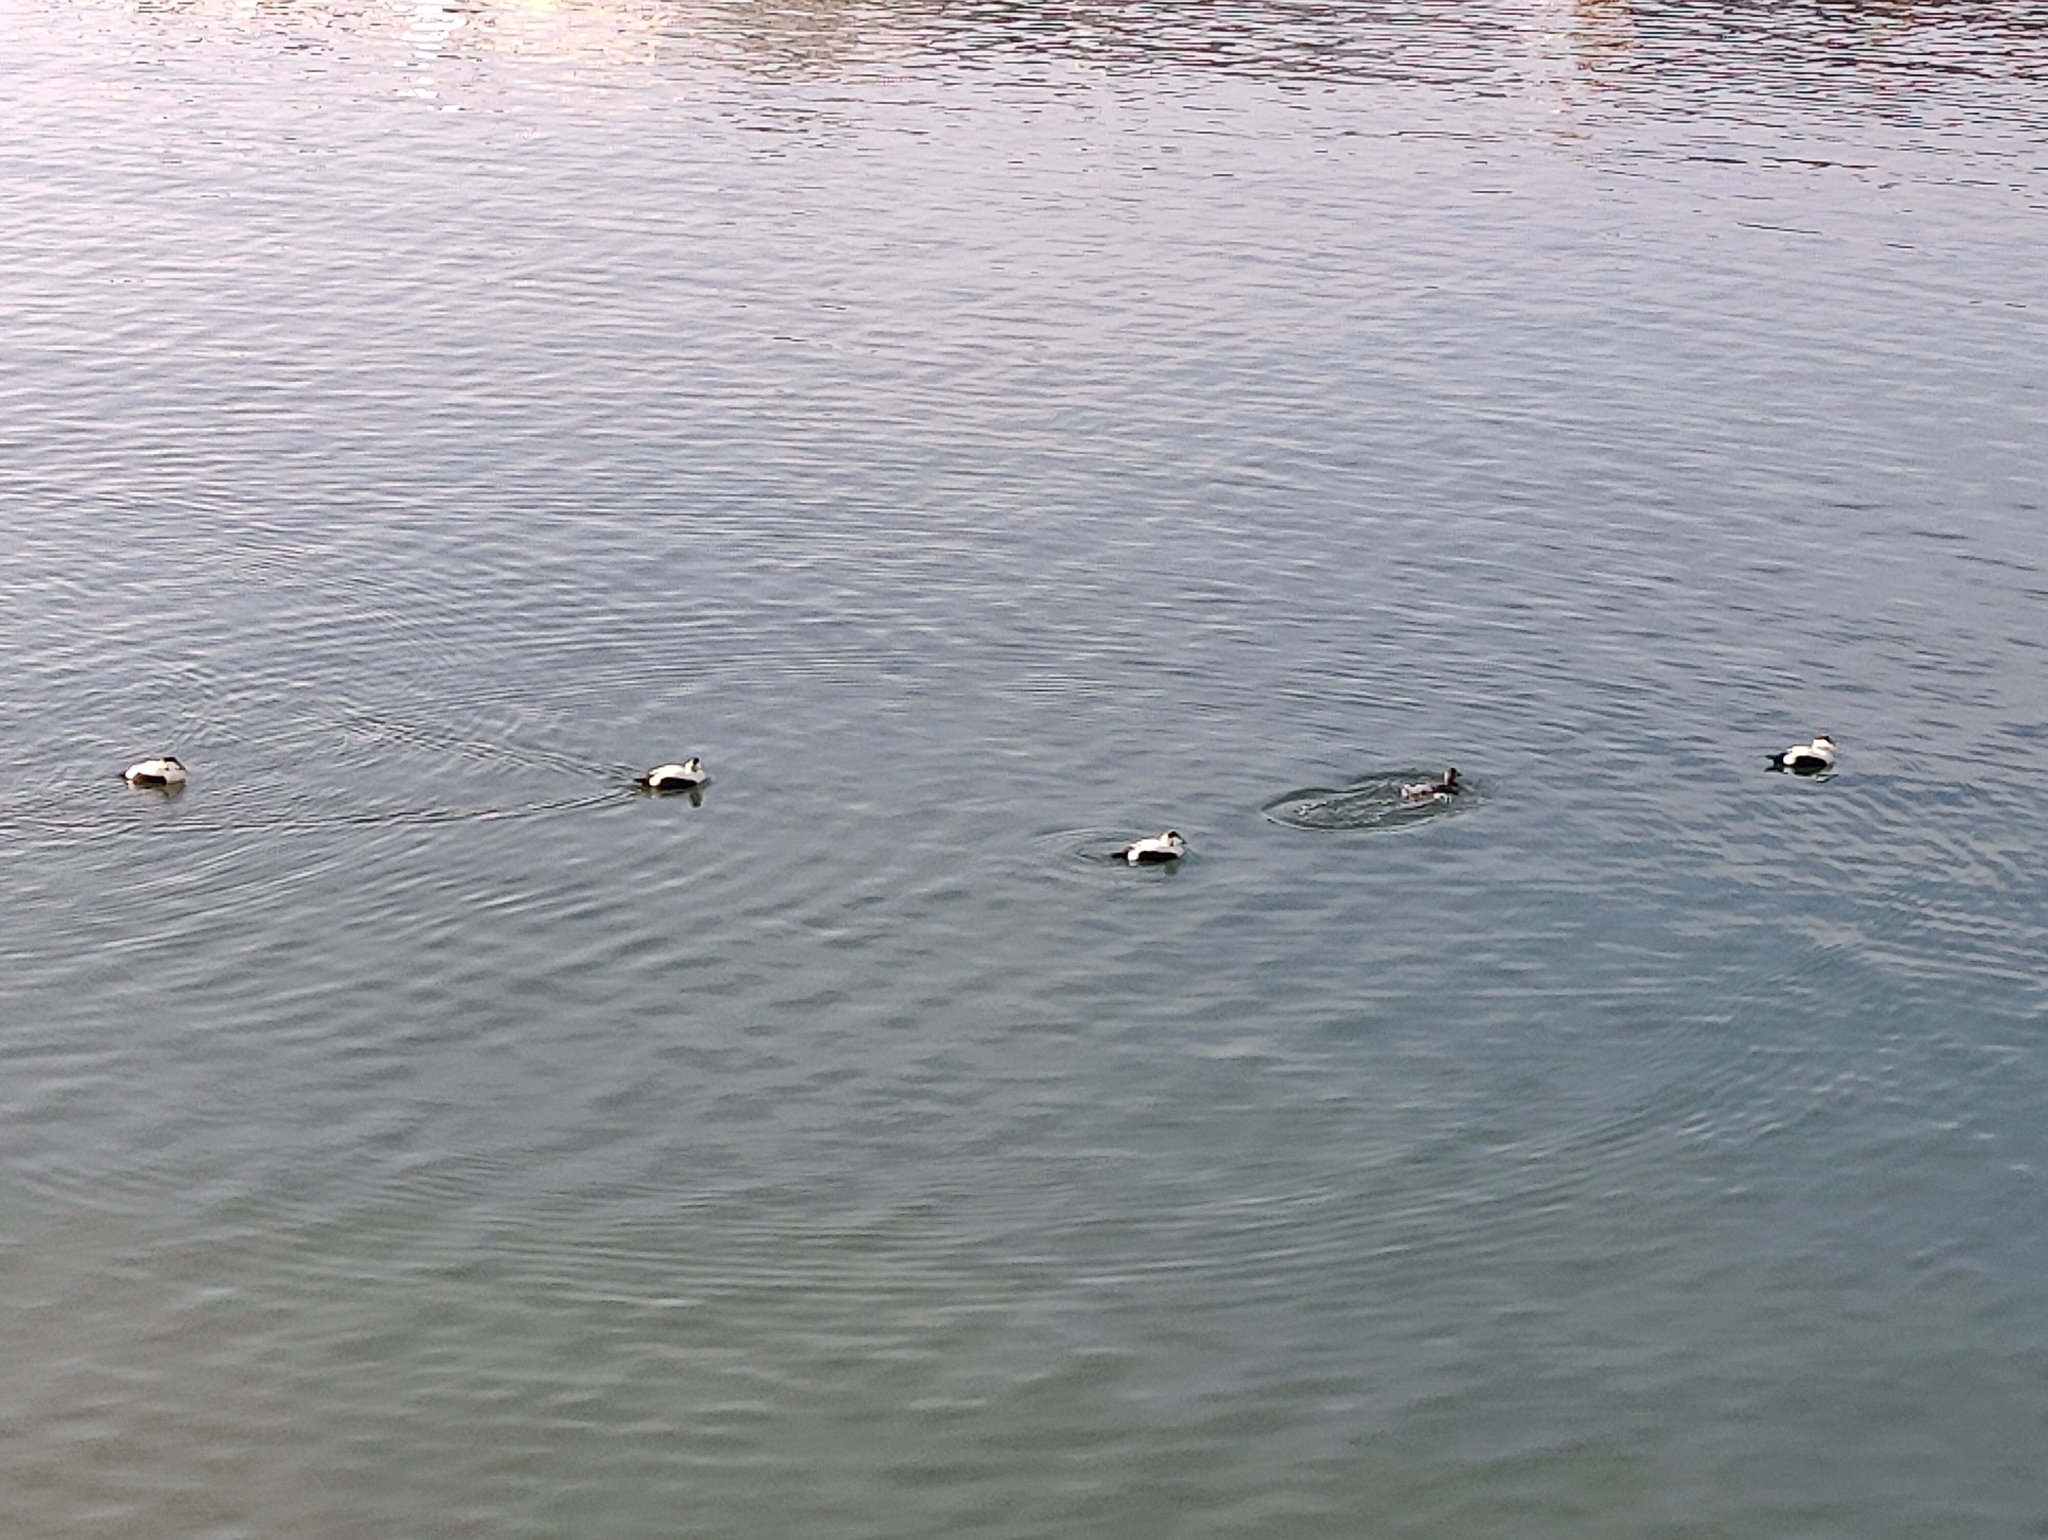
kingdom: Animalia
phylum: Chordata
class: Aves
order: Anseriformes
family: Anatidae
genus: Somateria
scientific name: Somateria mollissima
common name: Common eider
